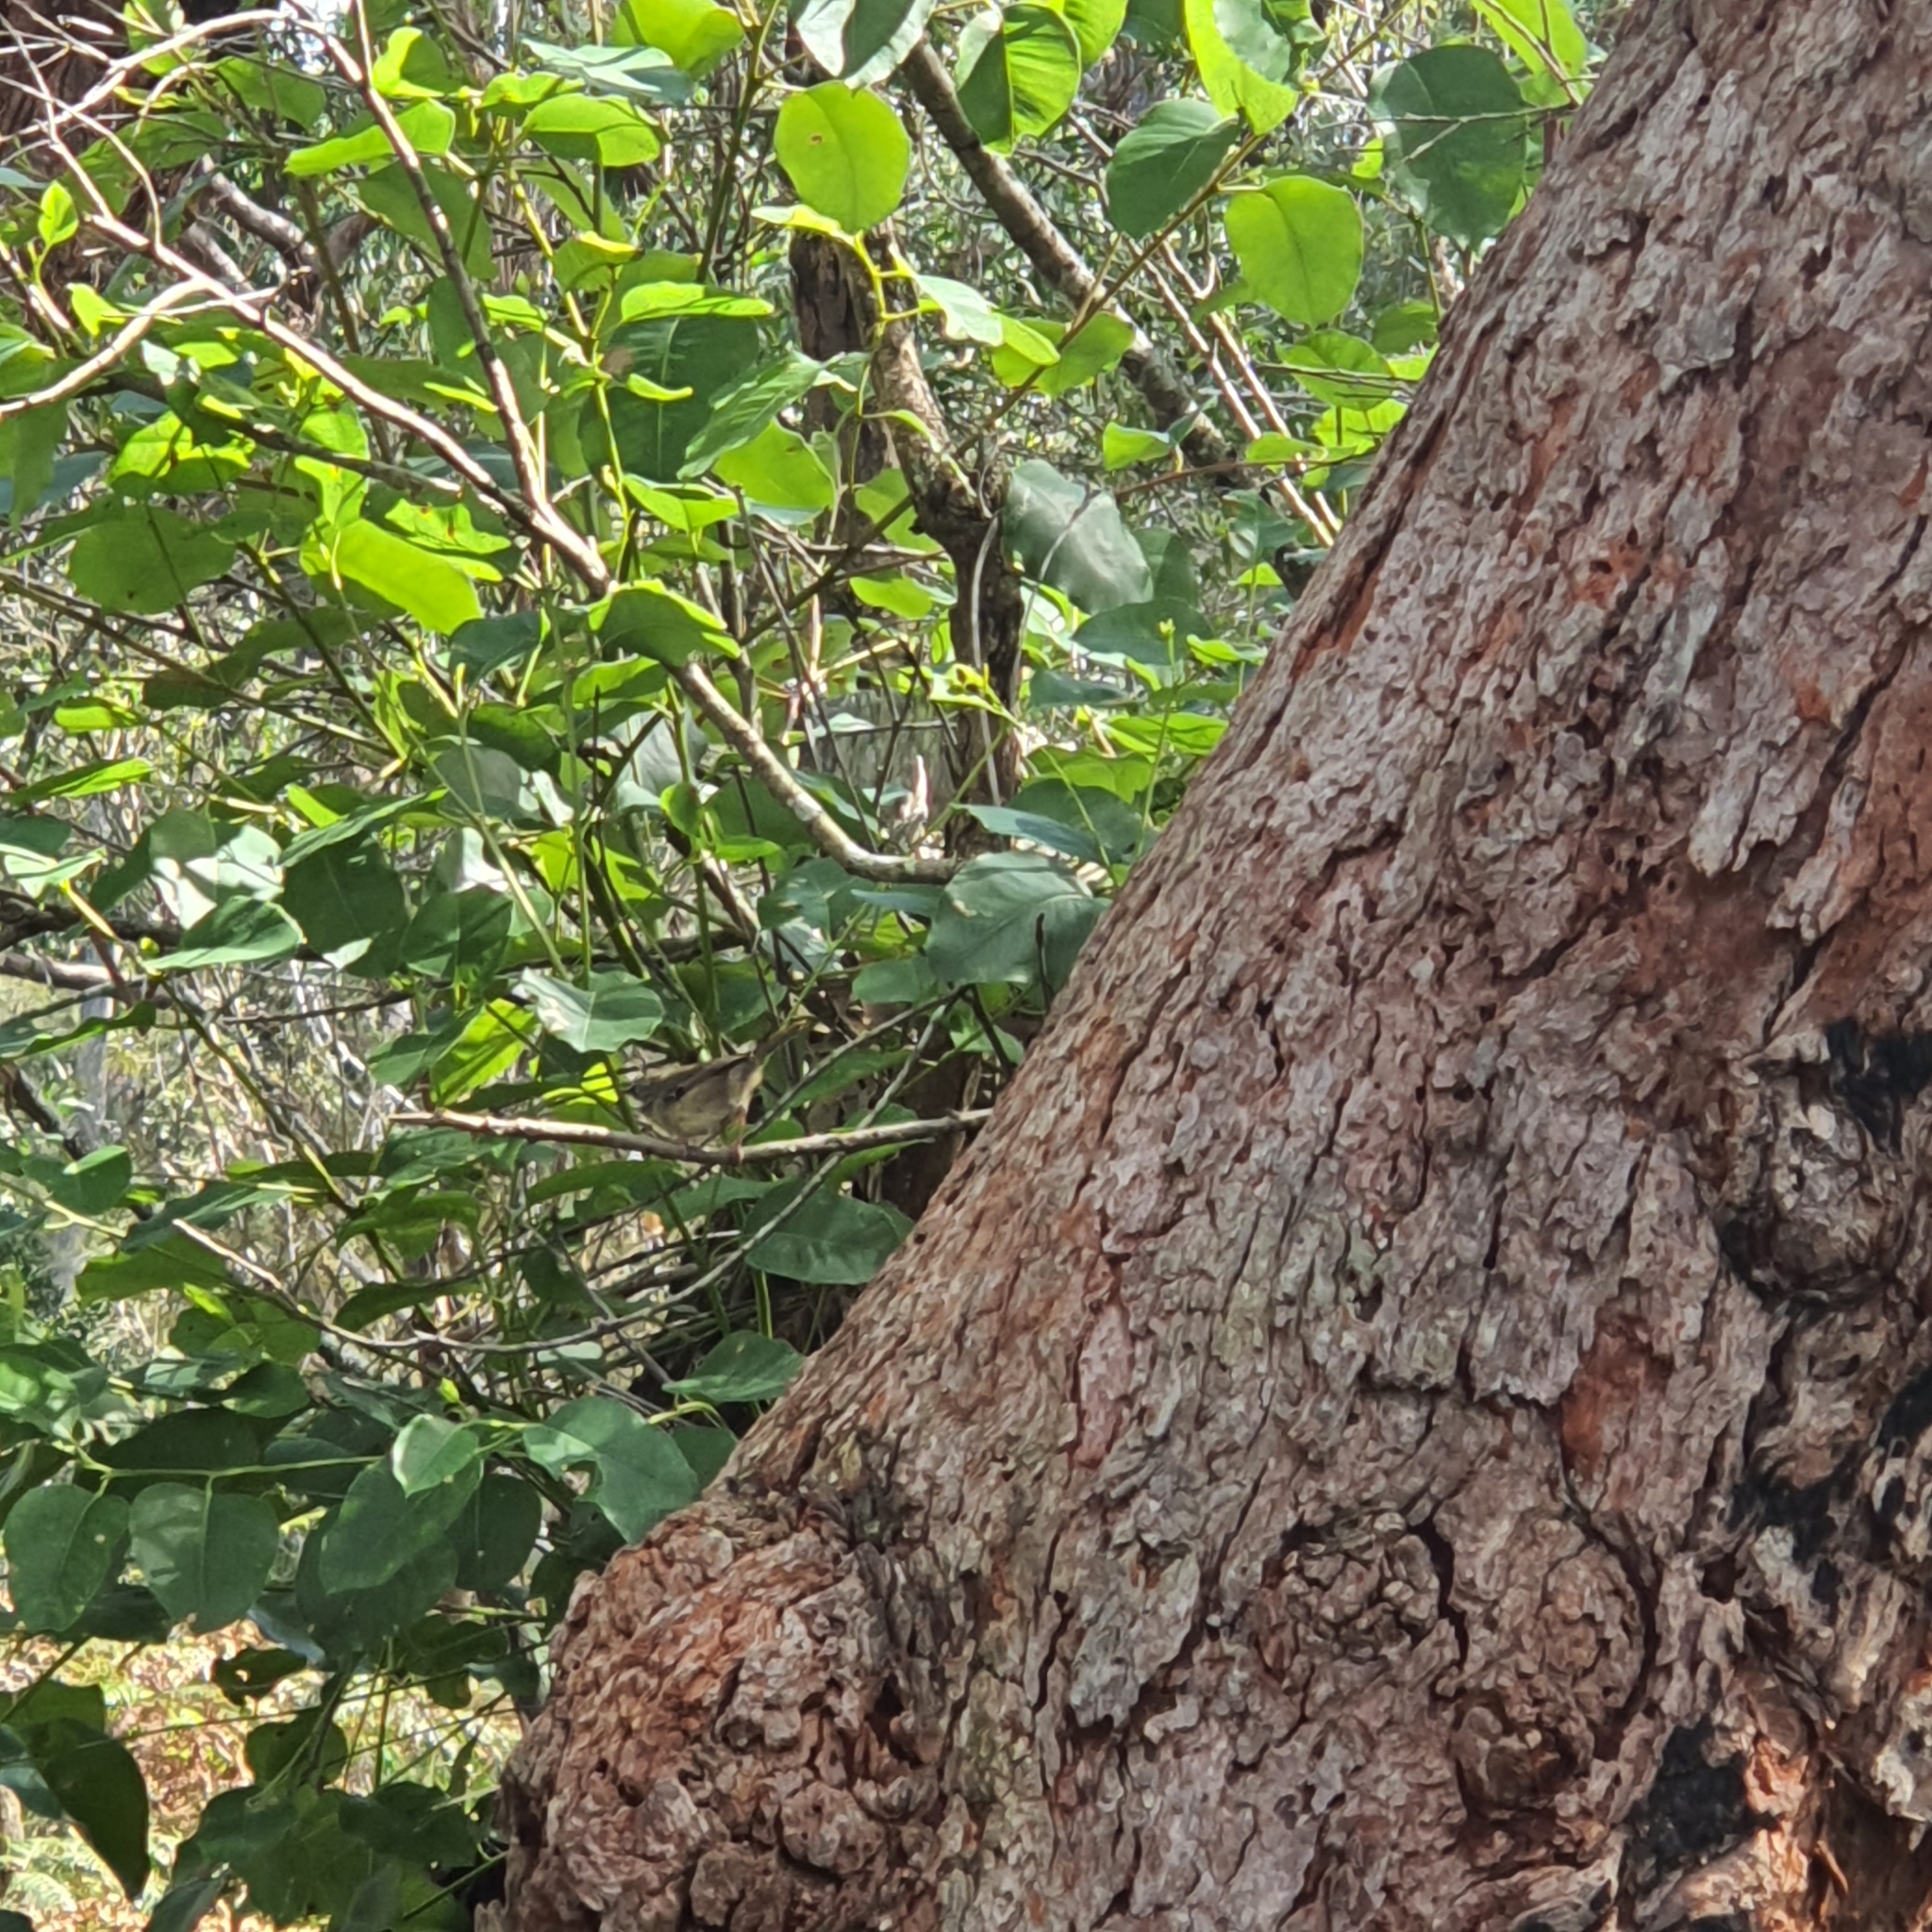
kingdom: Animalia
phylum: Chordata
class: Aves
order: Passeriformes
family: Acanthizidae
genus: Sericornis
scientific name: Sericornis frontalis
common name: White-browed scrubwren
